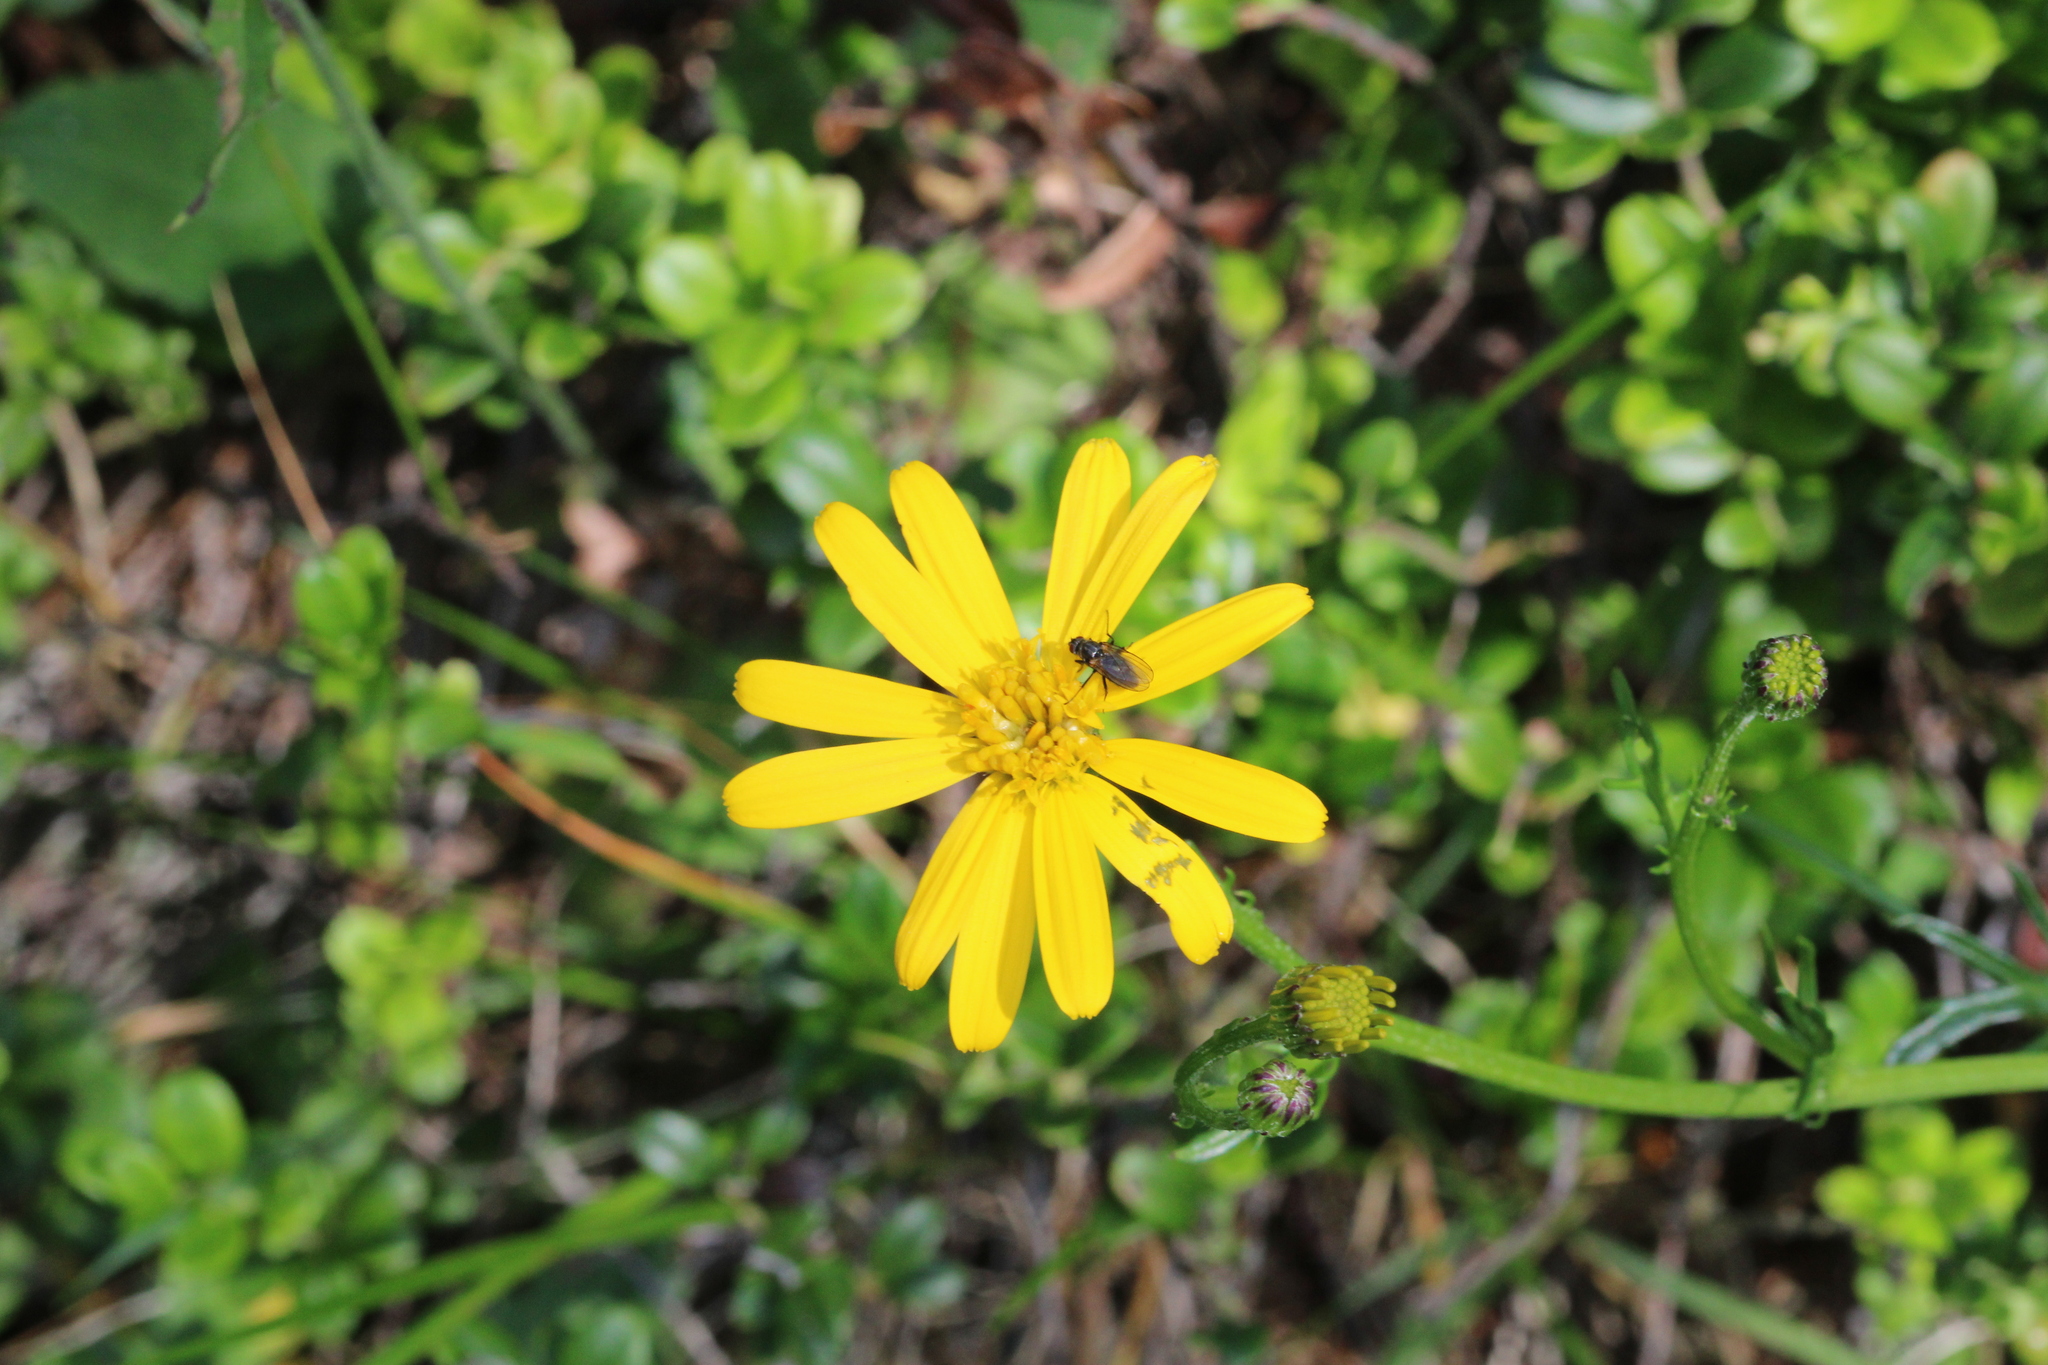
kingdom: Plantae
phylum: Tracheophyta
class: Magnoliopsida
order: Asterales
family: Asteraceae
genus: Jacobaea
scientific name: Jacobaea abrotanifolia
